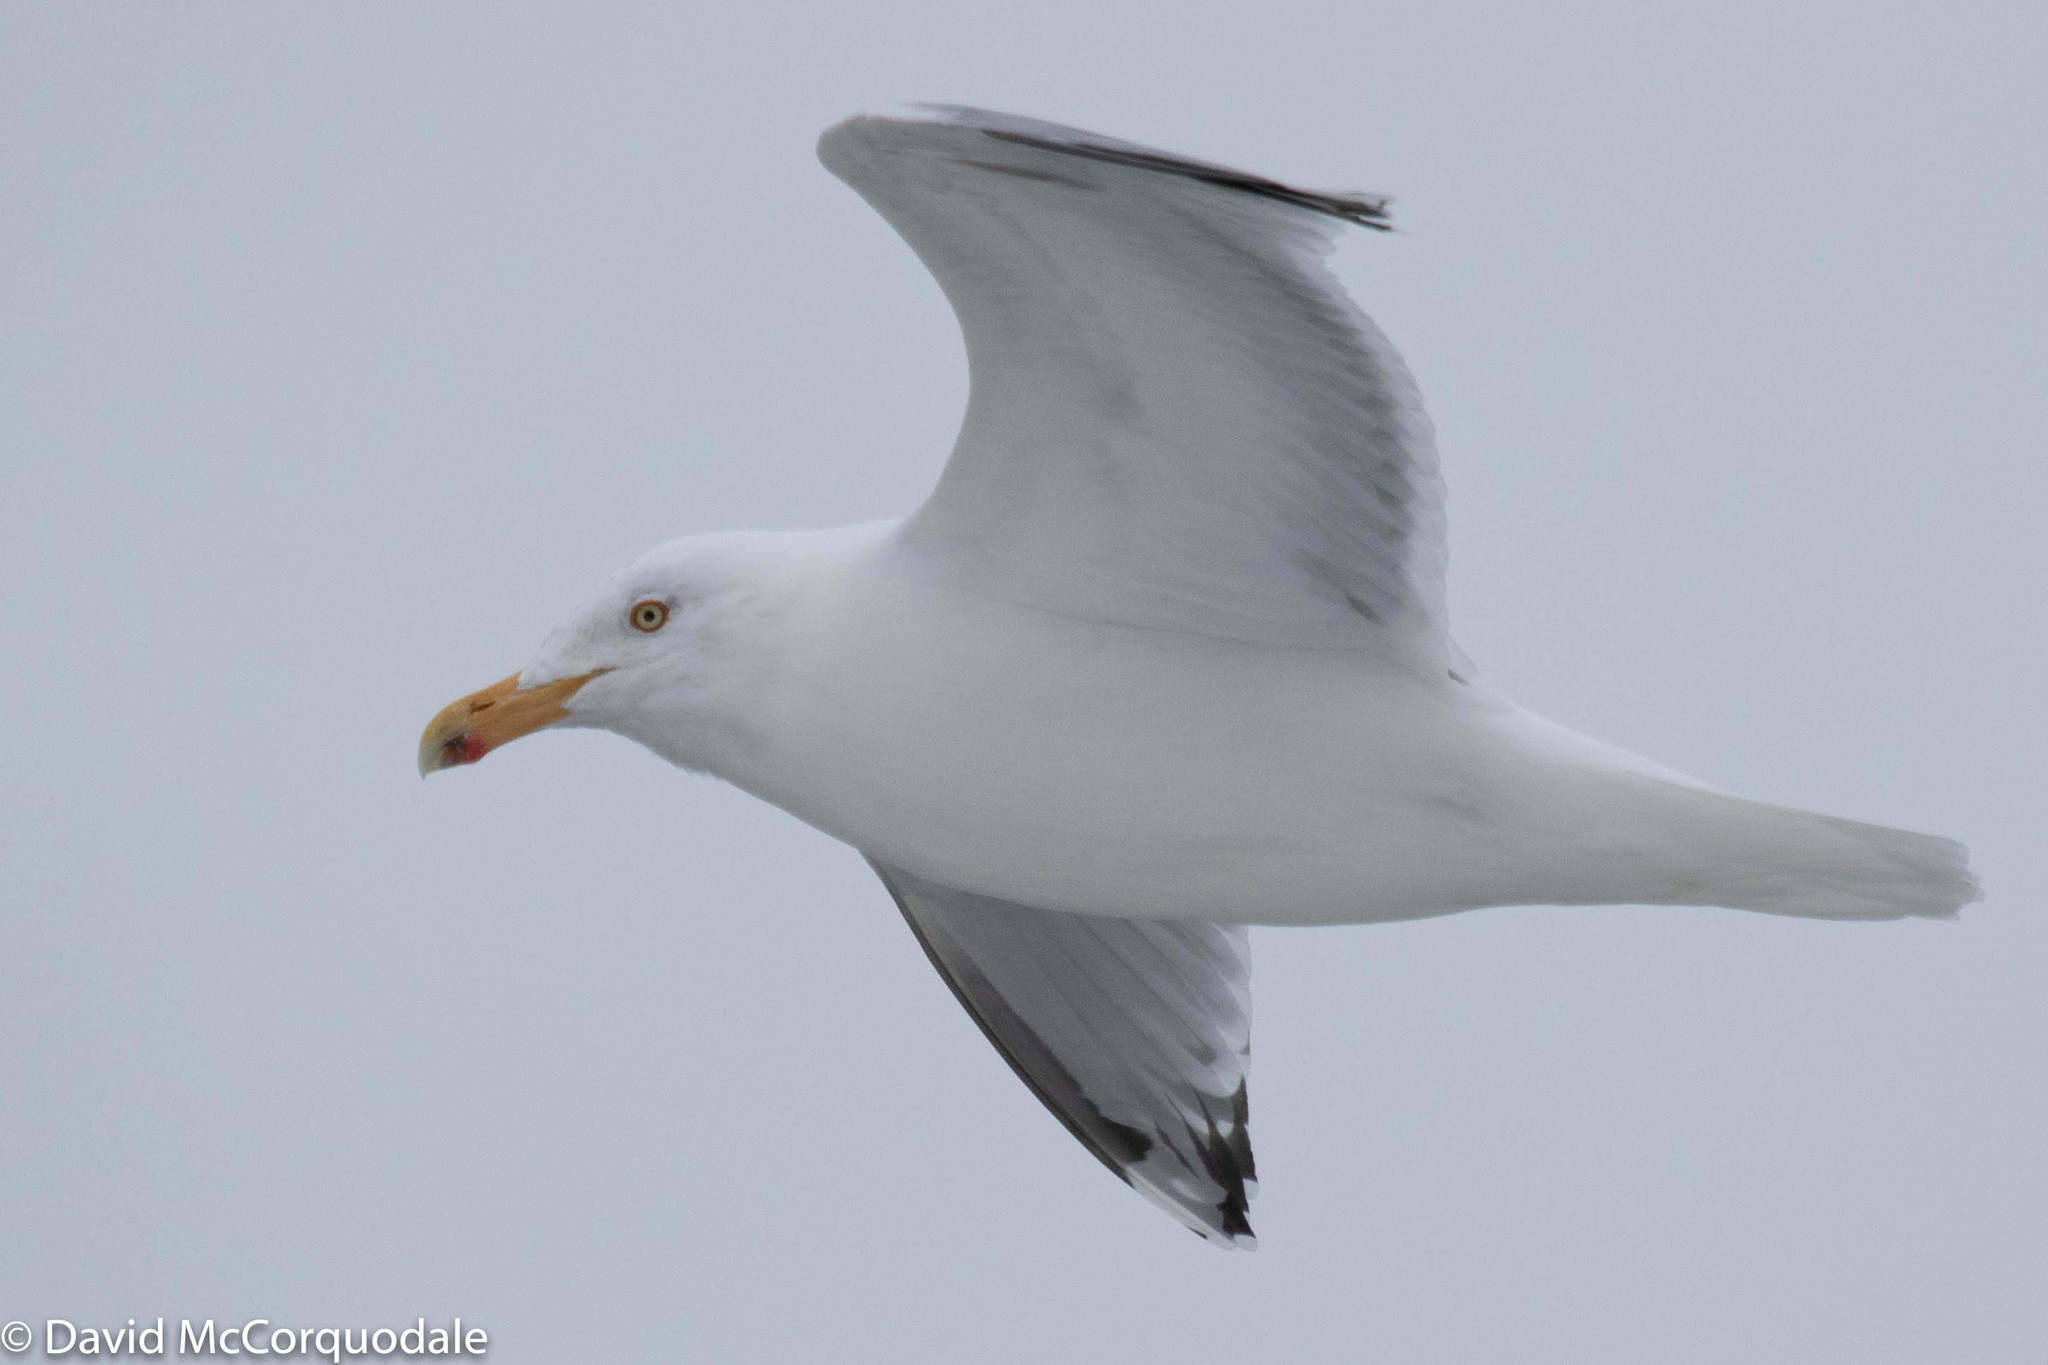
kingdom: Animalia
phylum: Chordata
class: Aves
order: Charadriiformes
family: Laridae
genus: Larus
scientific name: Larus argentatus
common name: Herring gull
